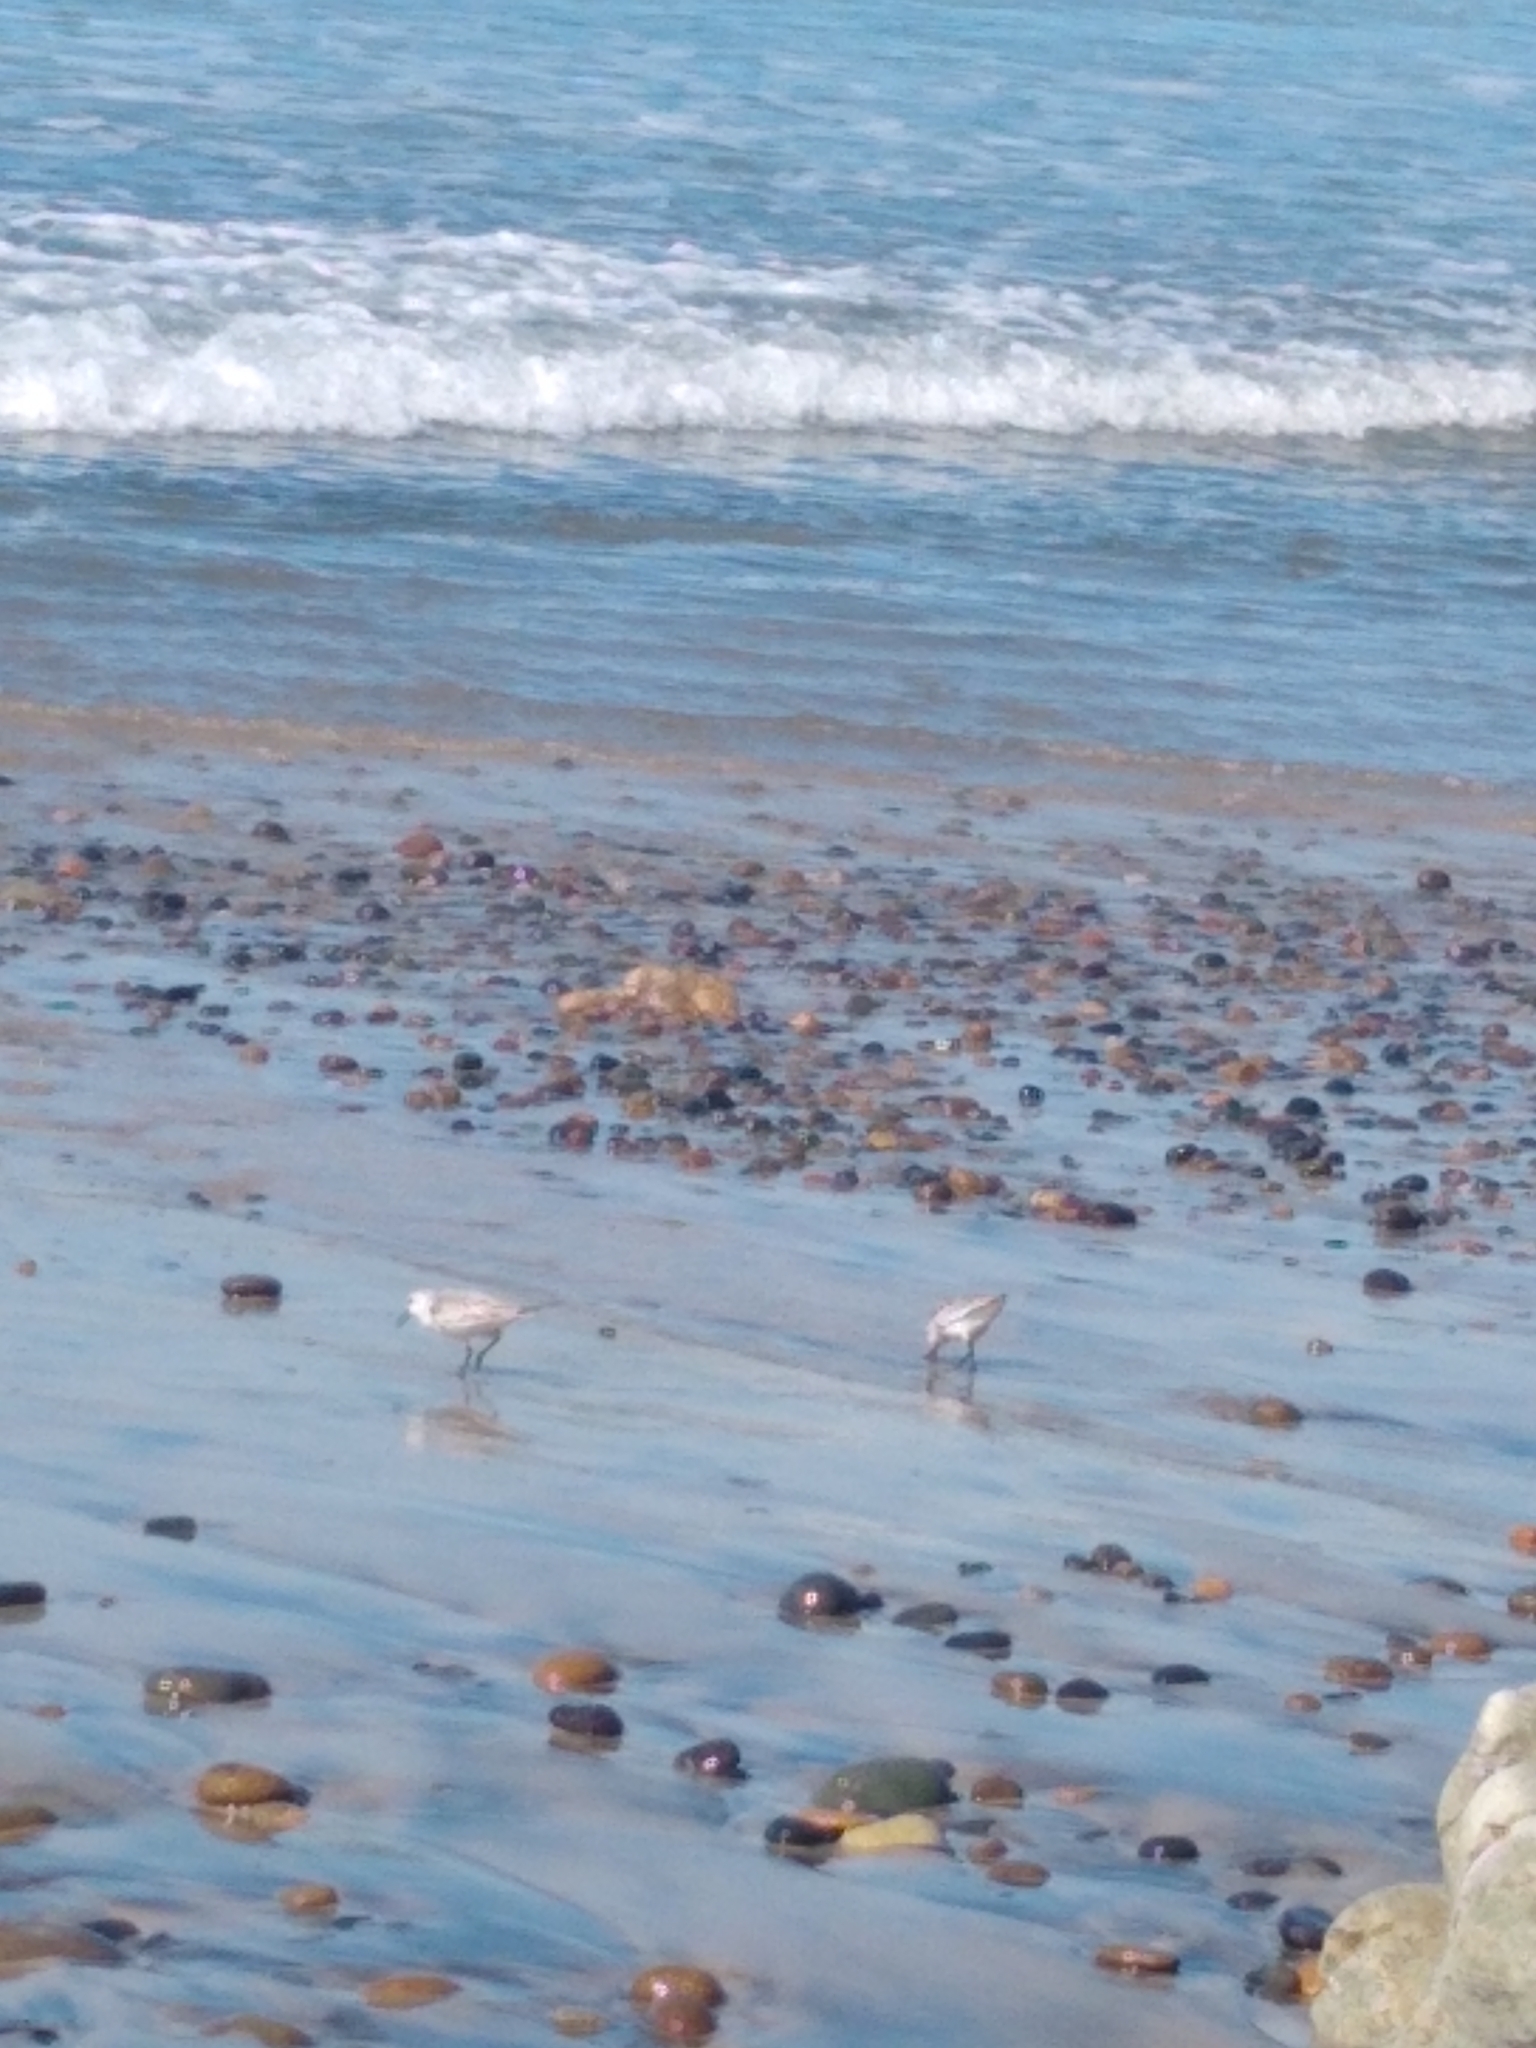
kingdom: Animalia
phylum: Chordata
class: Aves
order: Charadriiformes
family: Scolopacidae
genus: Calidris
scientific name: Calidris alba
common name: Sanderling
